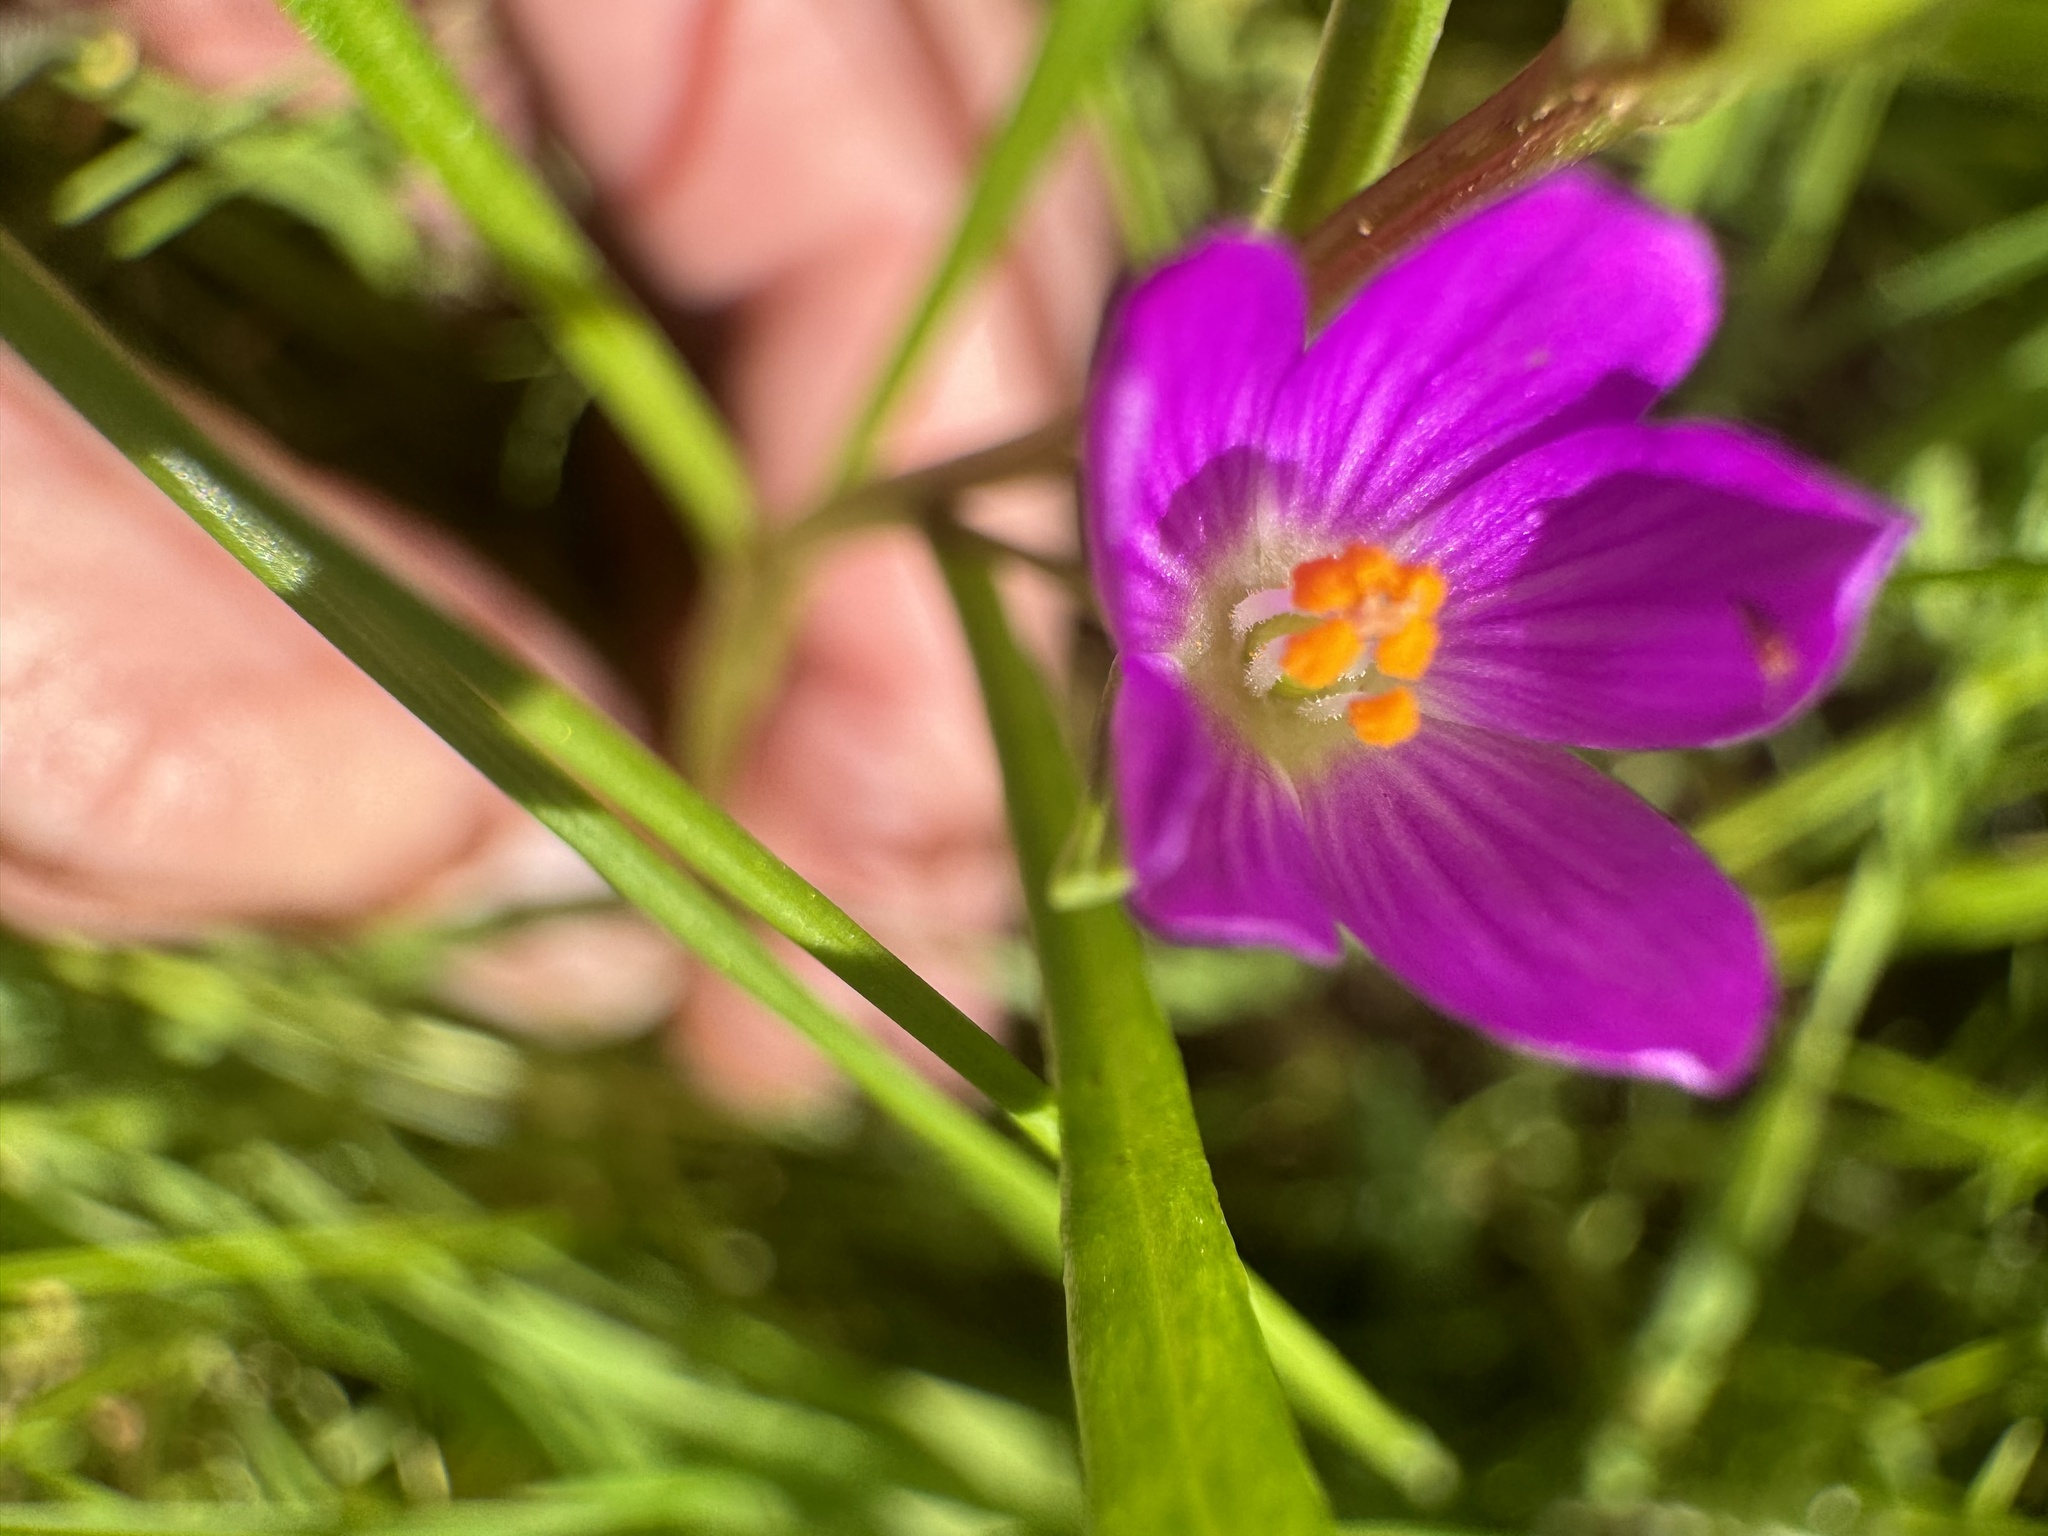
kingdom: Plantae
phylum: Tracheophyta
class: Magnoliopsida
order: Caryophyllales
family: Montiaceae
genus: Calandrinia
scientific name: Calandrinia menziesii
